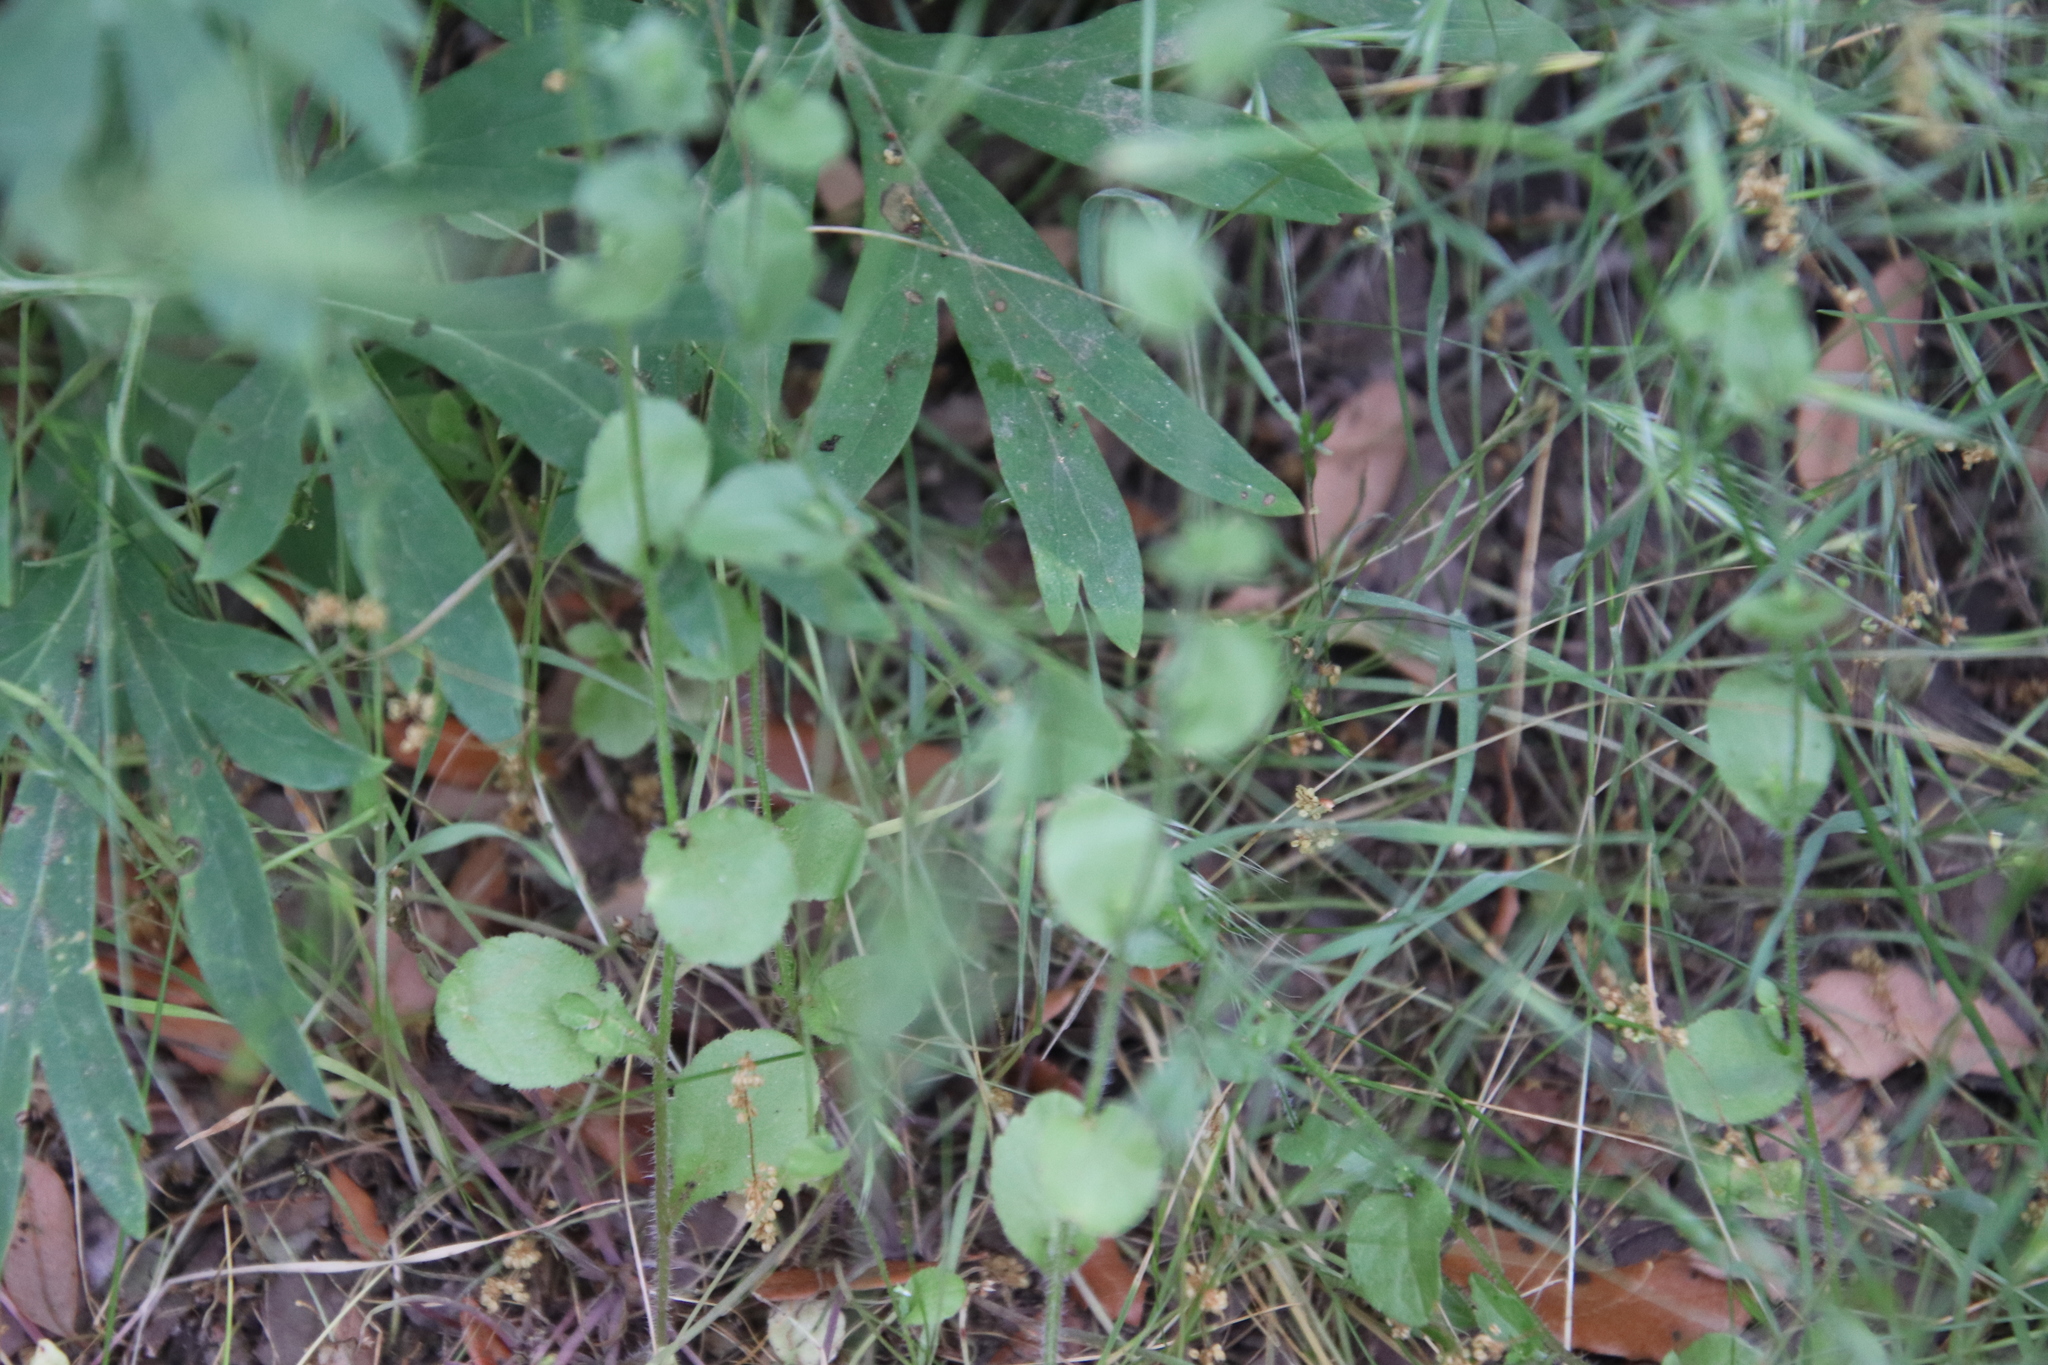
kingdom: Plantae
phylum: Tracheophyta
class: Magnoliopsida
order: Asterales
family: Campanulaceae
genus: Triodanis
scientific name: Triodanis biflora
